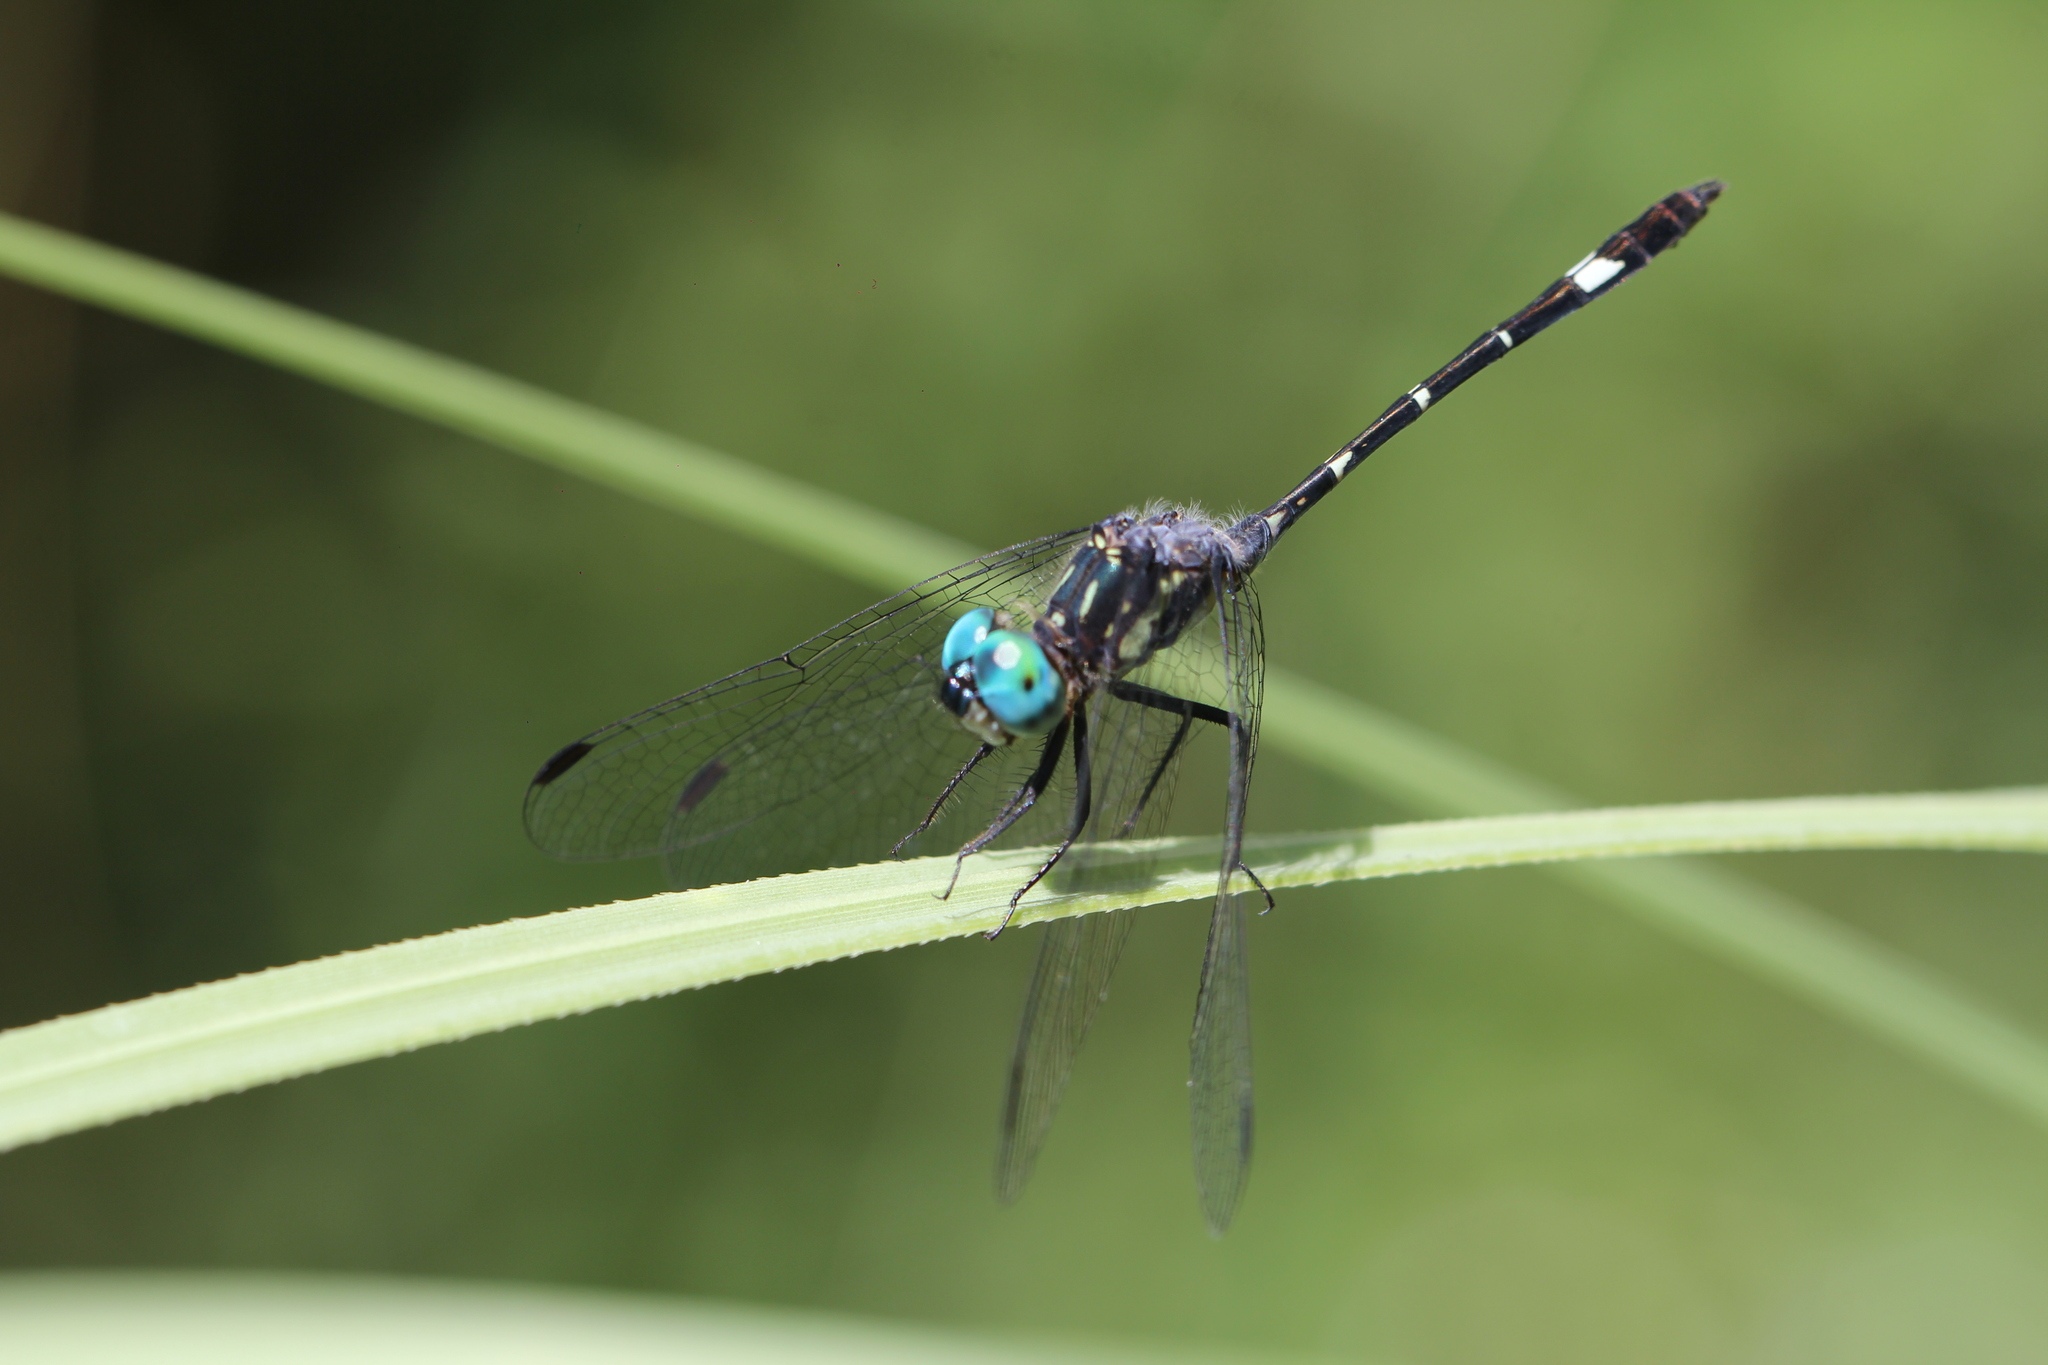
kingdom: Animalia
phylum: Arthropoda
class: Insecta
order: Odonata
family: Libellulidae
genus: Micrathyria
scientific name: Micrathyria hypodidyma
